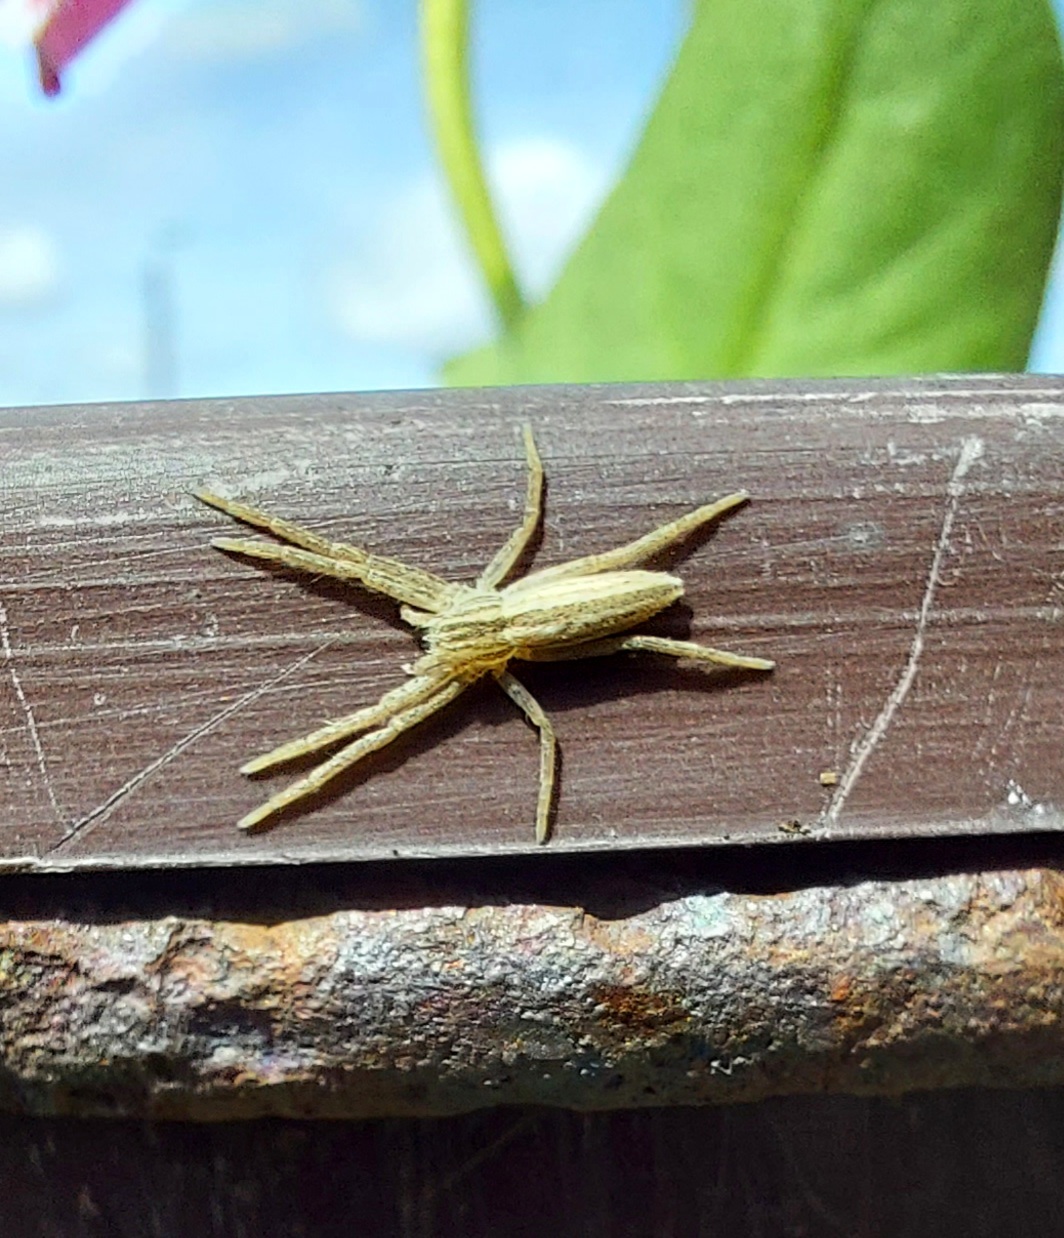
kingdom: Animalia
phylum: Arthropoda
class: Arachnida
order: Araneae
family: Philodromidae
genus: Tibellus
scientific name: Tibellus
